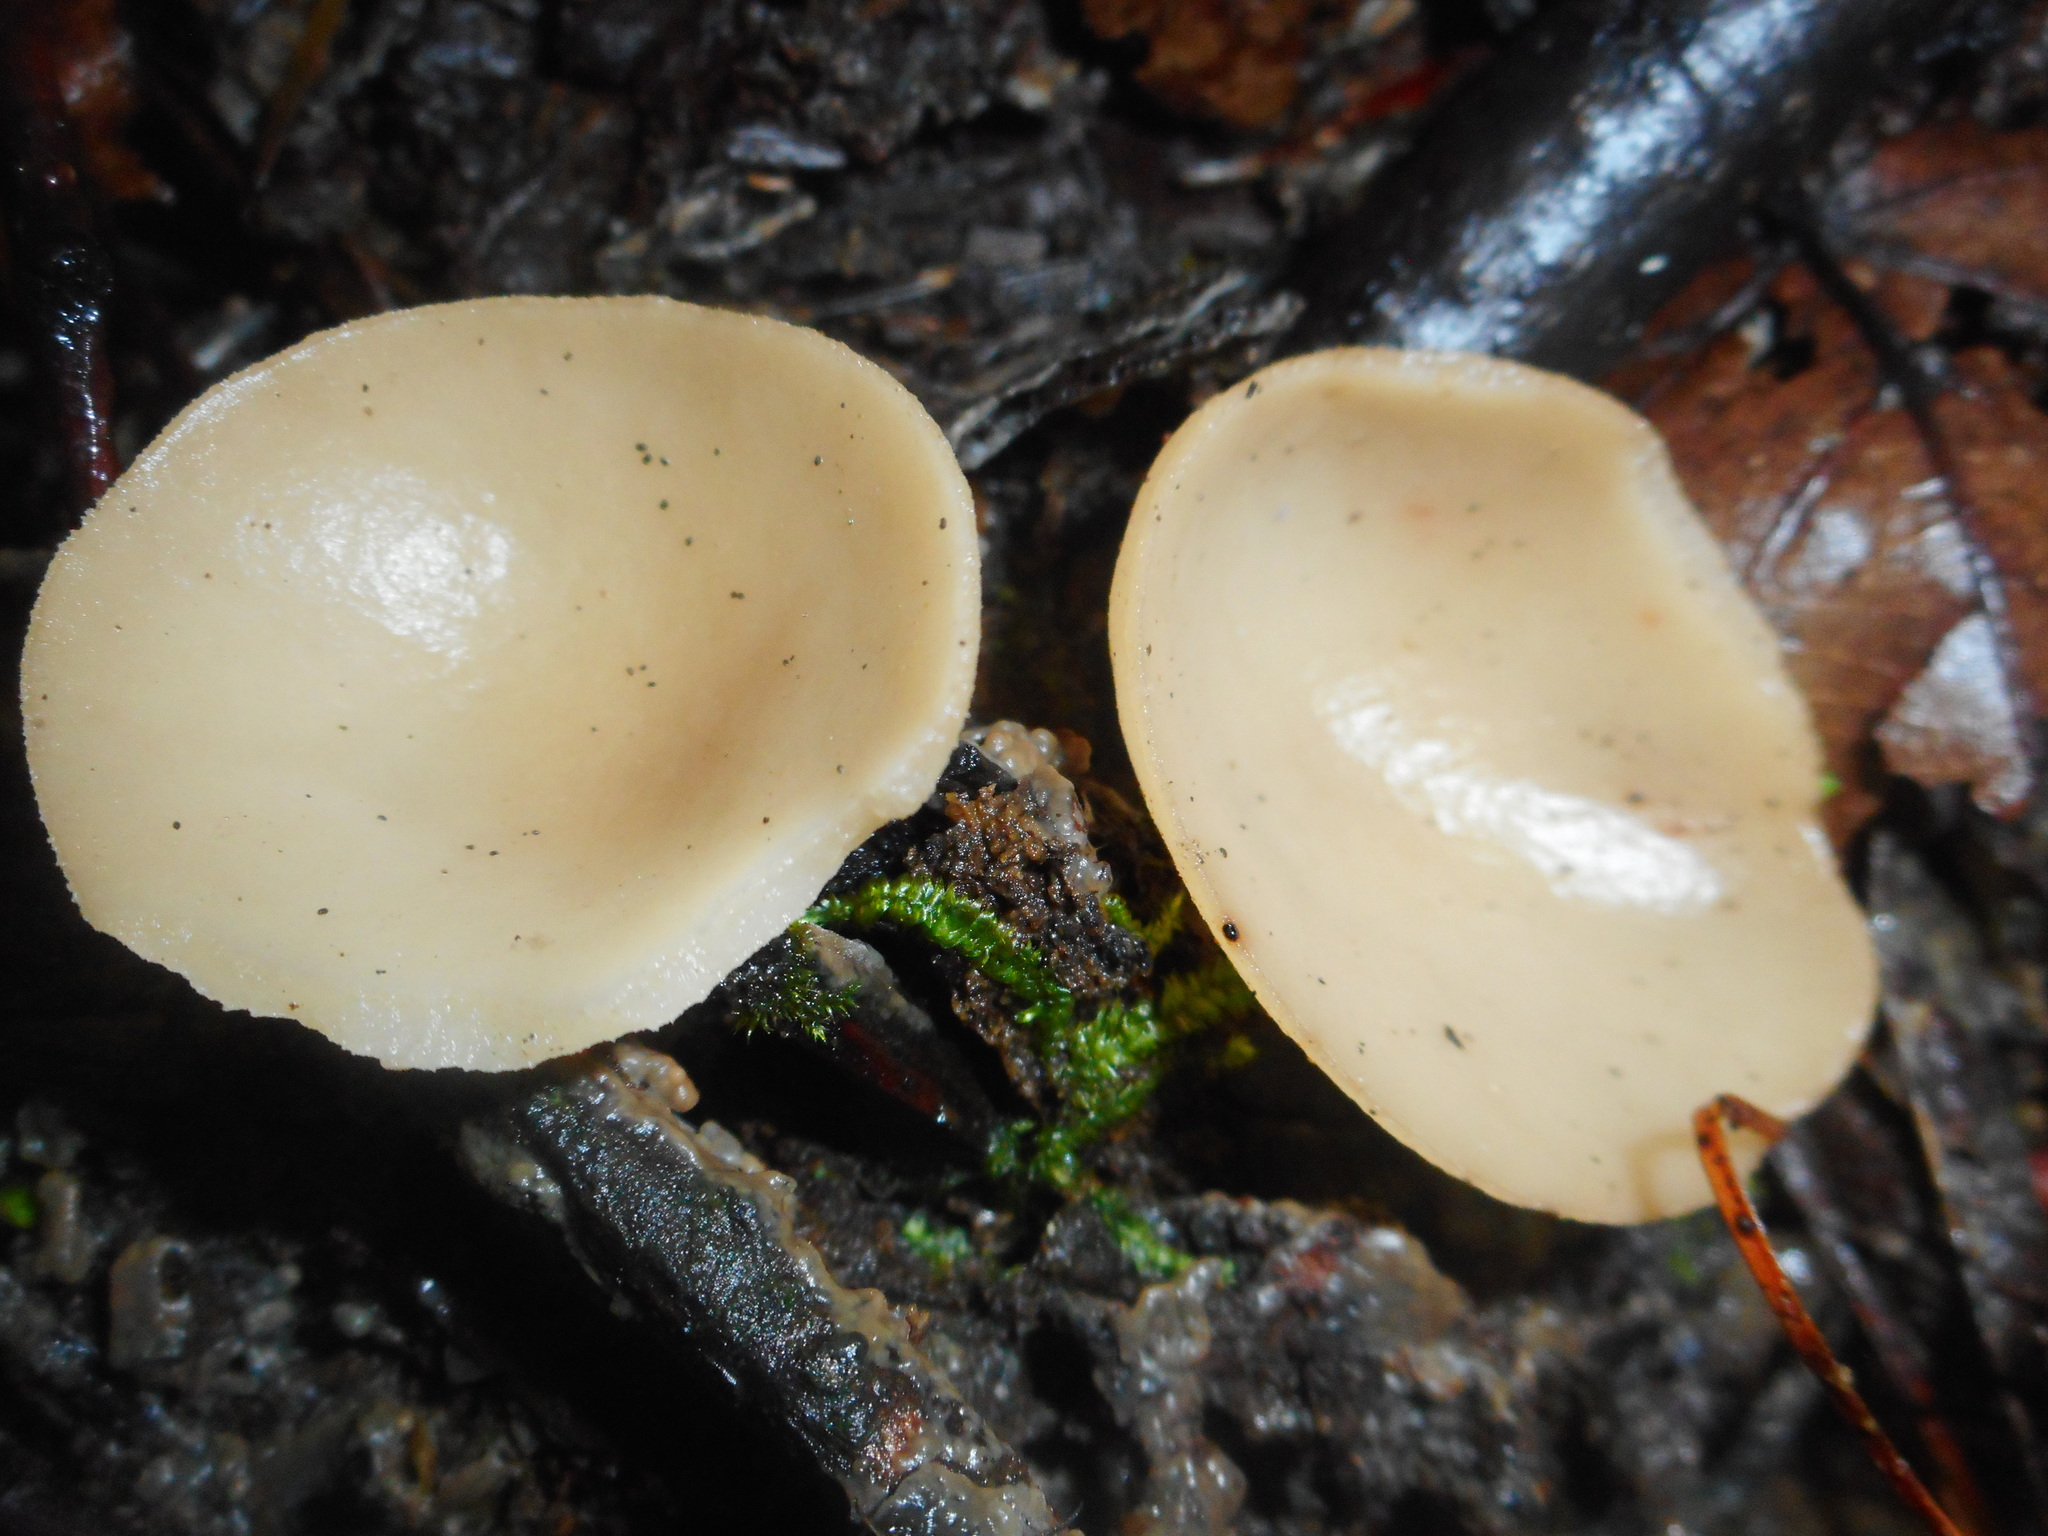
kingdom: Fungi
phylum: Ascomycota
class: Pezizomycetes
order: Pezizales
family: Sarcoscyphaceae
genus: Sarcoscypha
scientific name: Sarcoscypha vassiljevae
